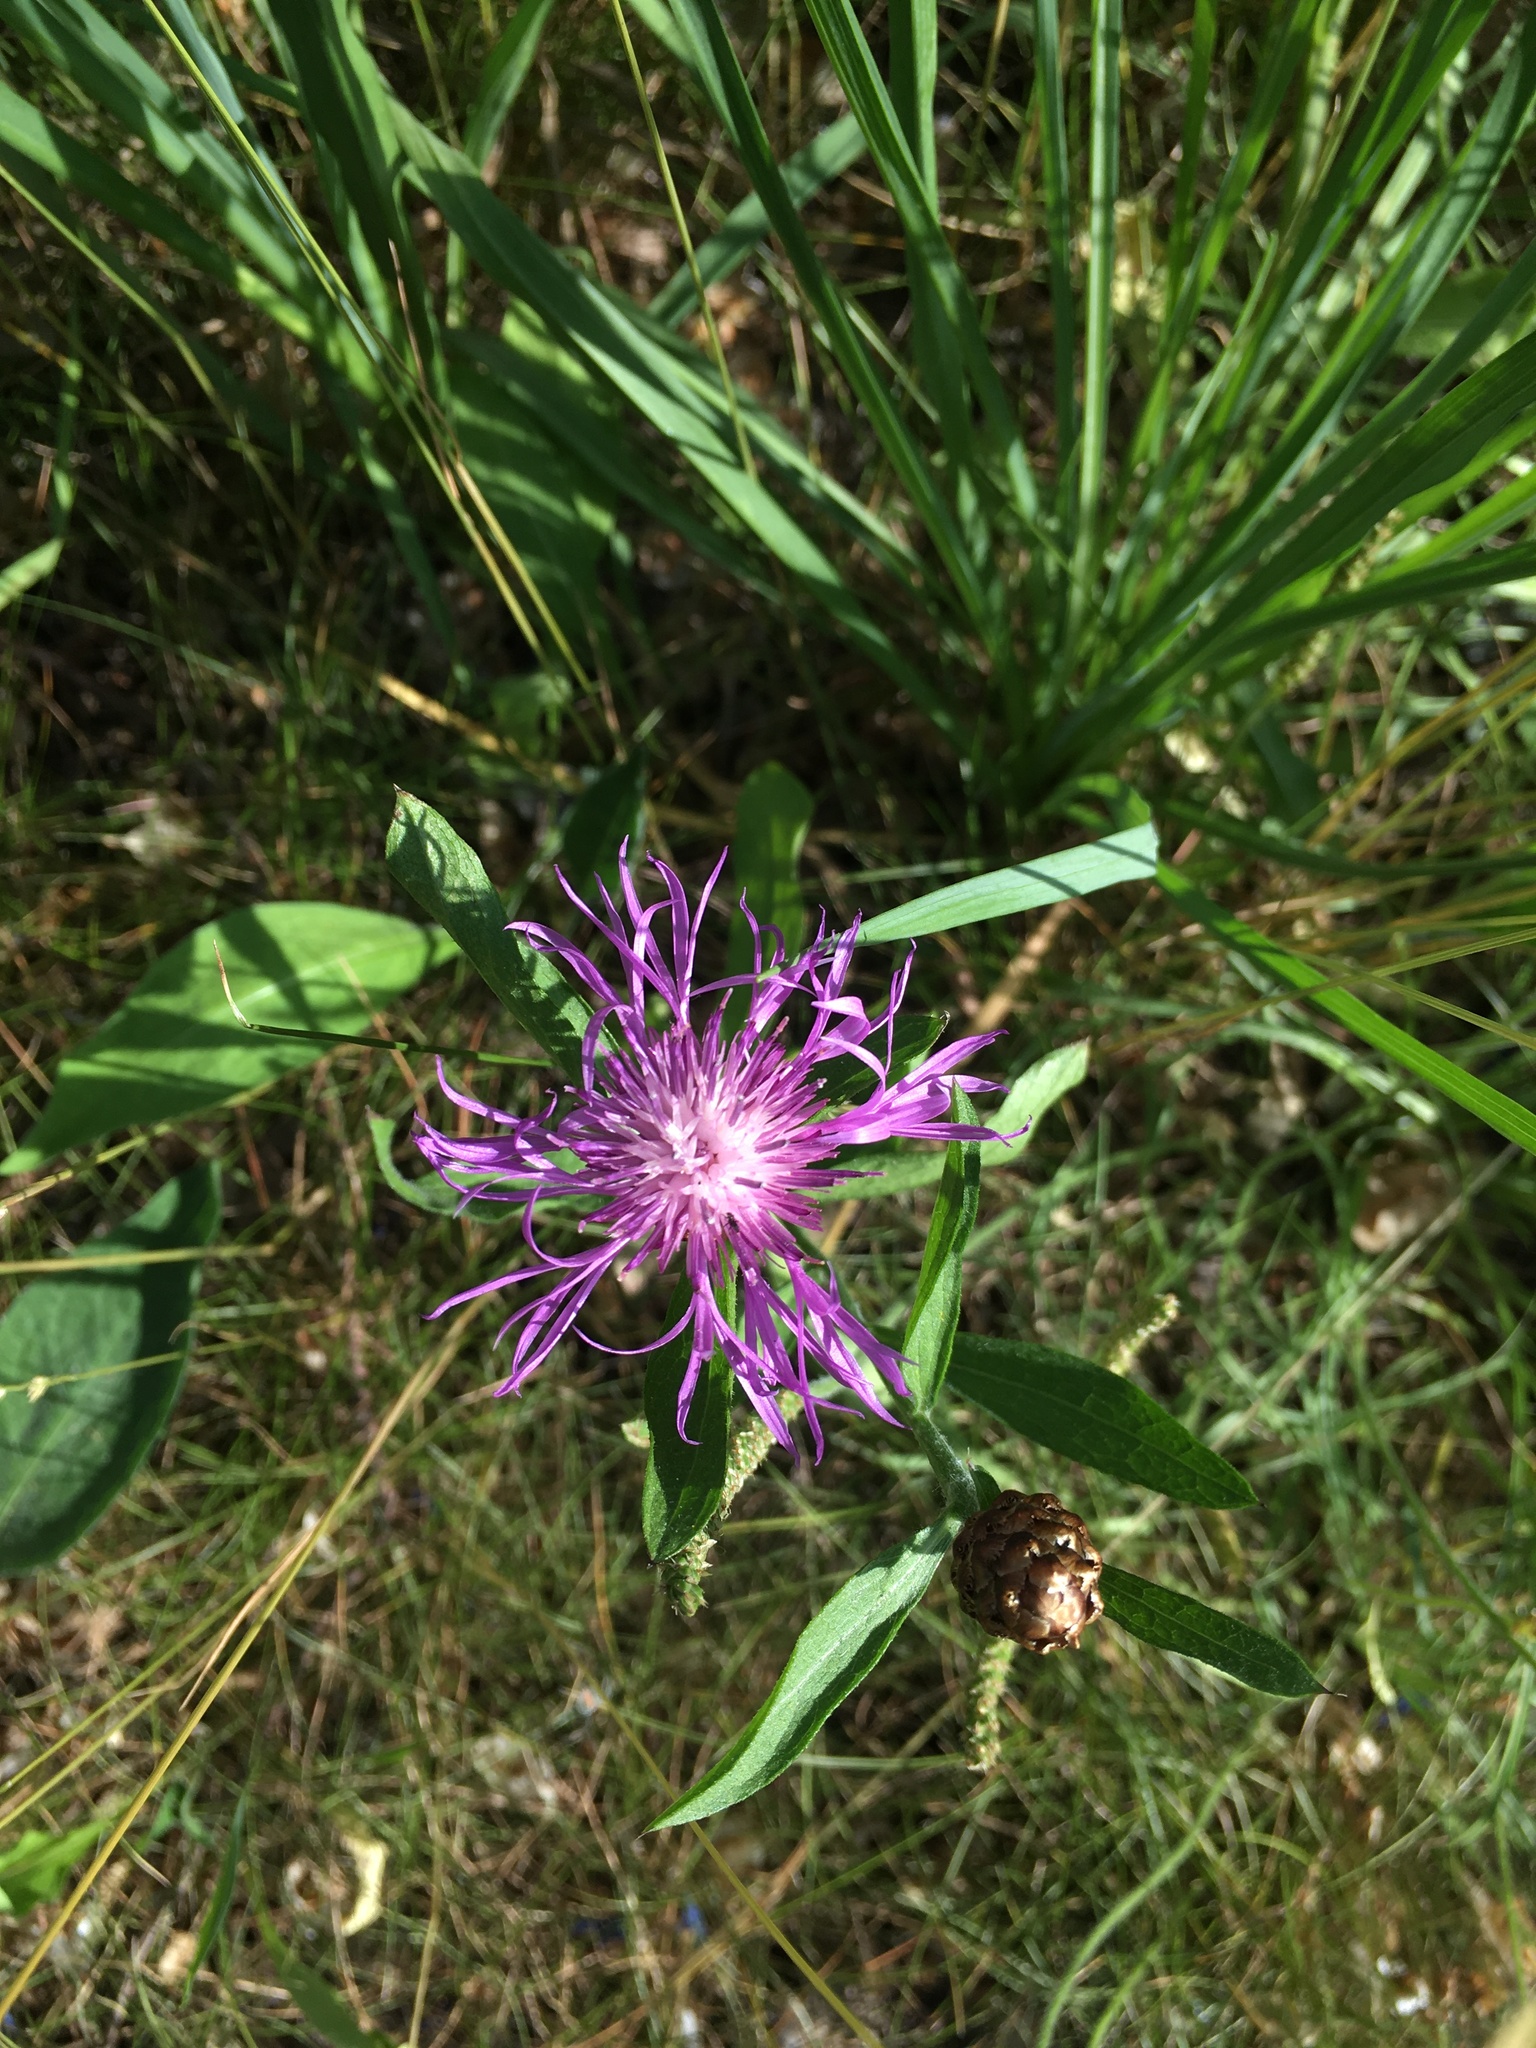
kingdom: Plantae
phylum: Tracheophyta
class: Magnoliopsida
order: Asterales
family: Asteraceae
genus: Centaurea
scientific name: Centaurea jacea
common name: Brown knapweed
